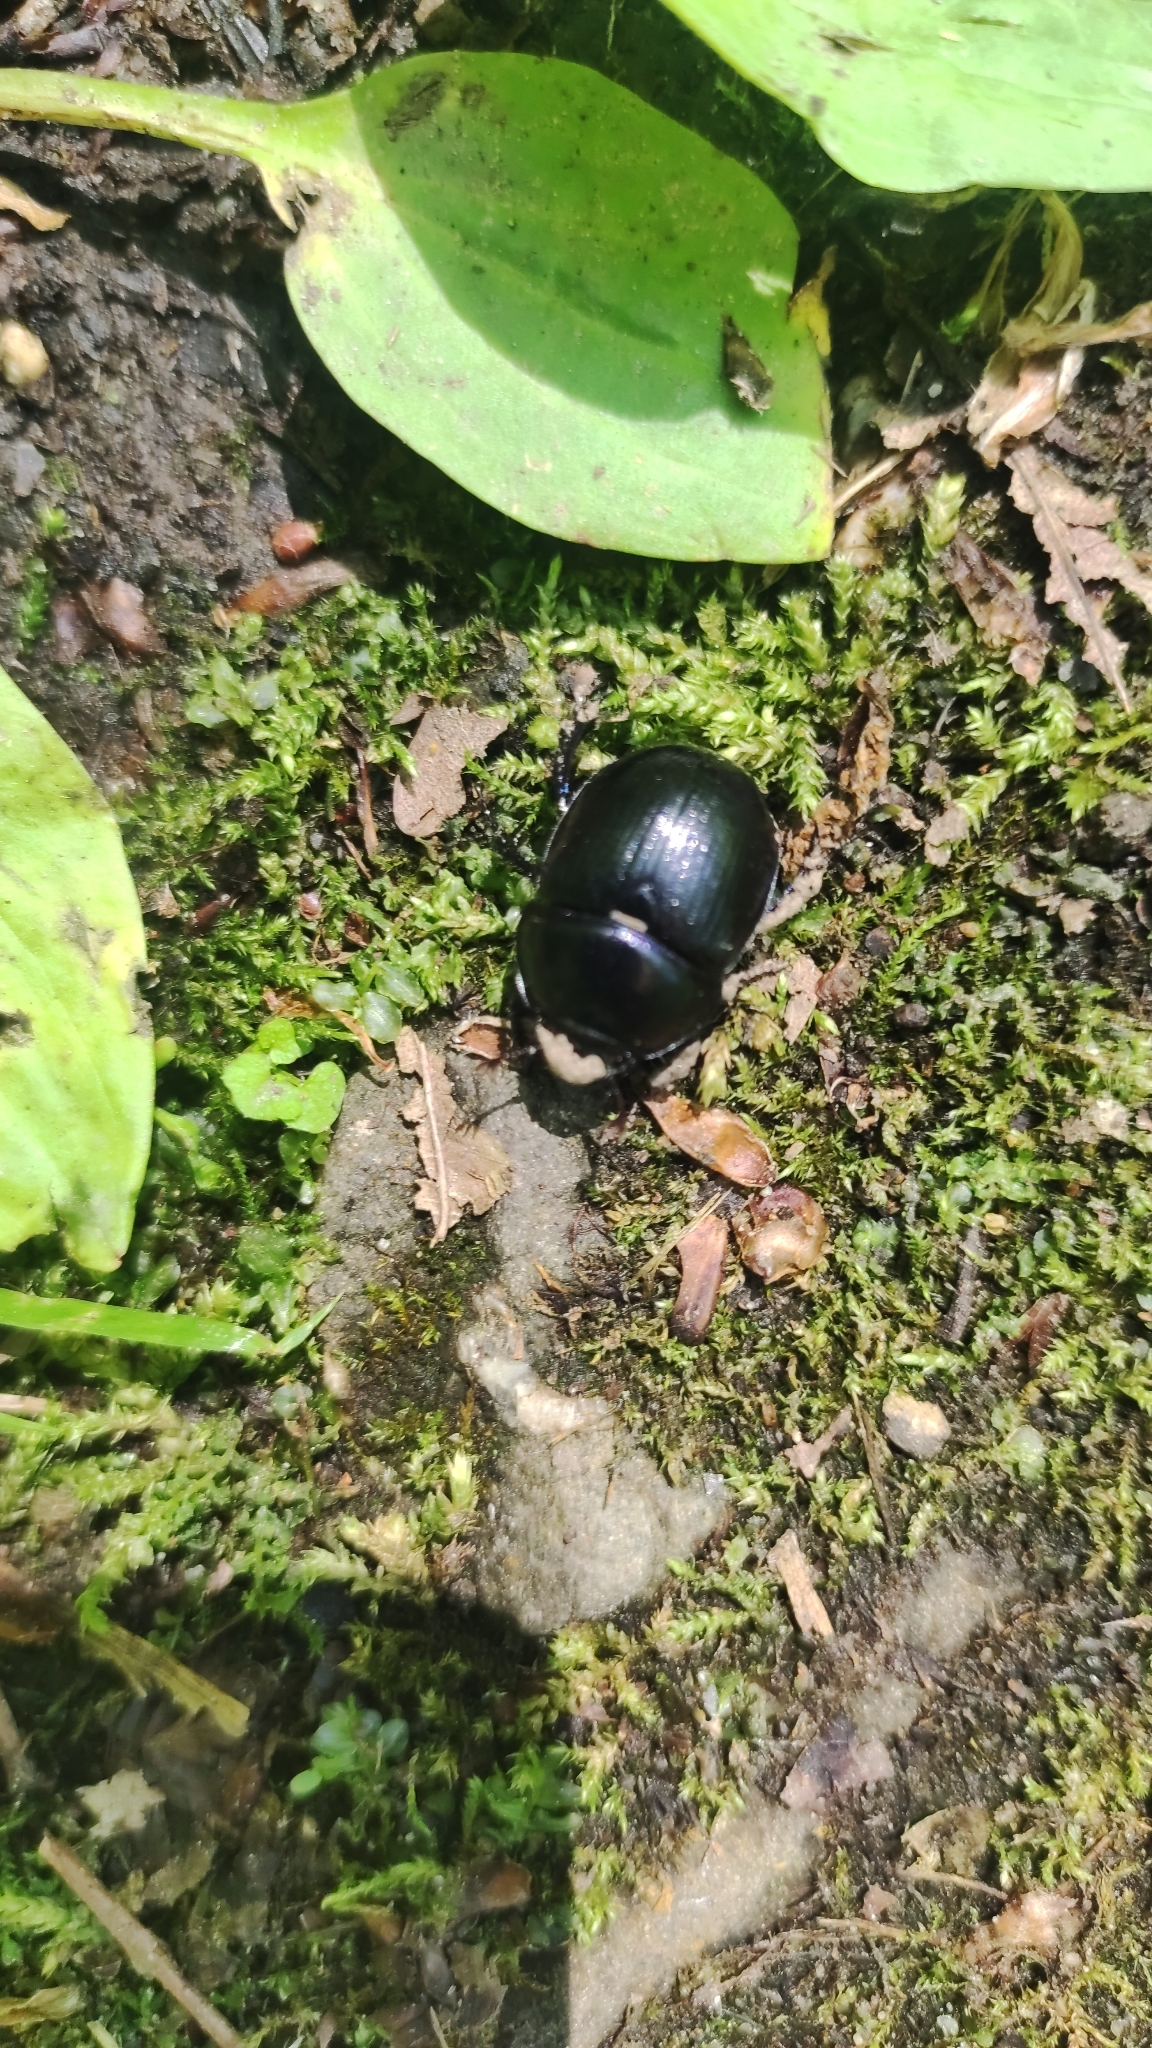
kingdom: Animalia
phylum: Arthropoda
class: Insecta
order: Coleoptera
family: Geotrupidae
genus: Anoplotrupes
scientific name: Anoplotrupes stercorosus
